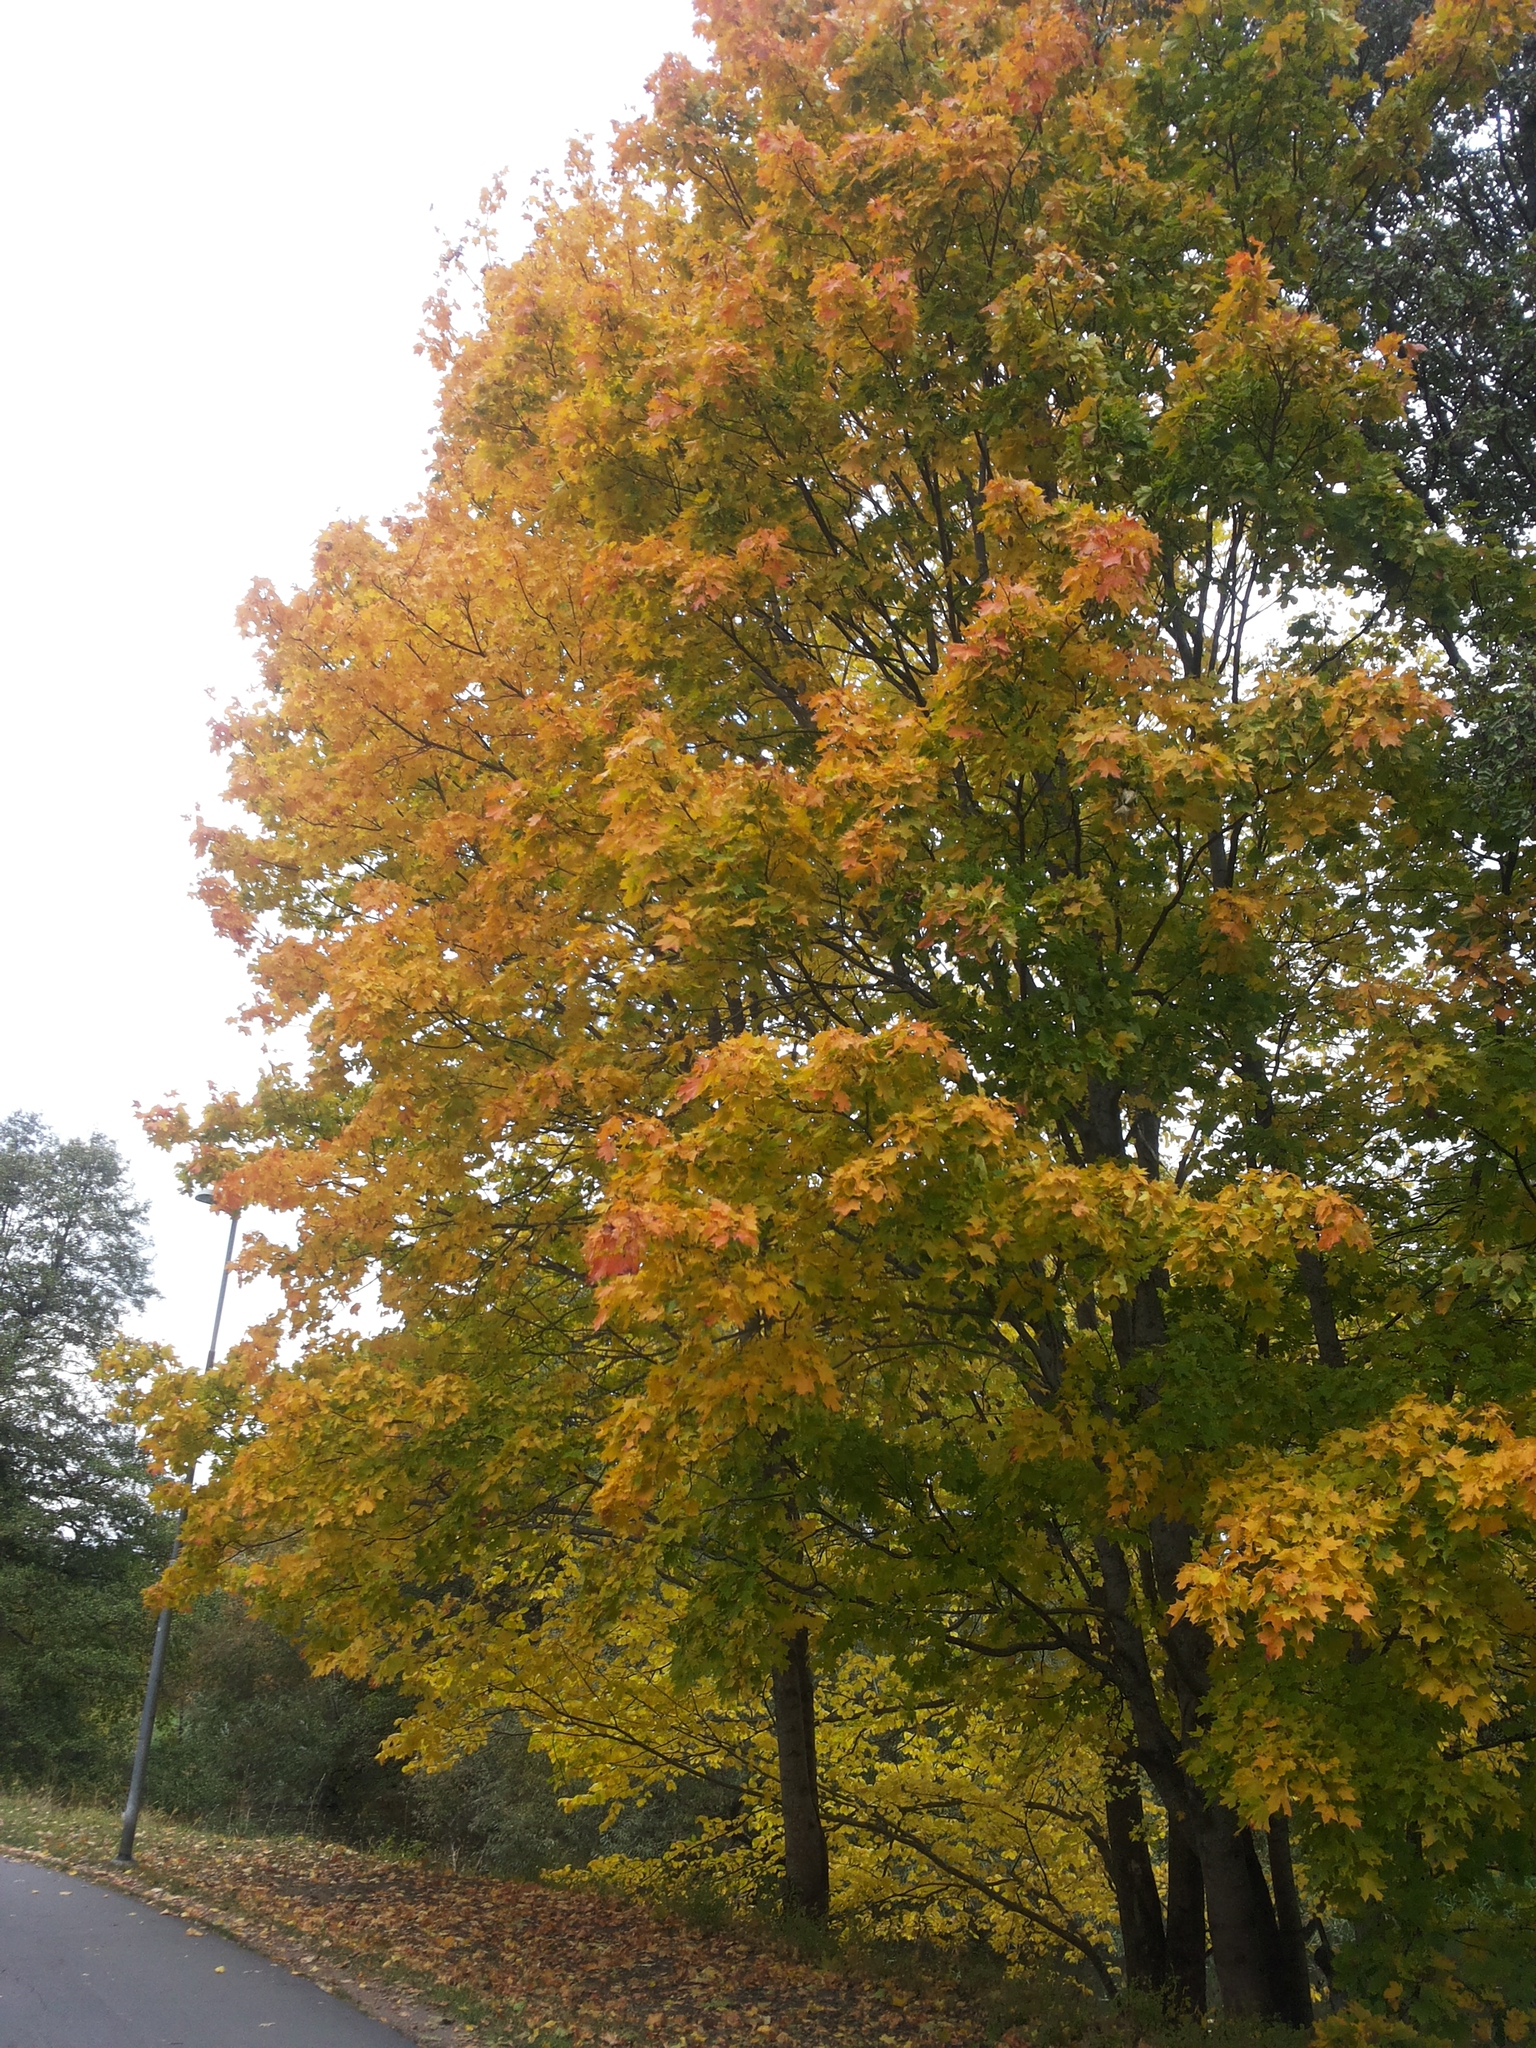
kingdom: Plantae
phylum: Tracheophyta
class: Magnoliopsida
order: Sapindales
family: Sapindaceae
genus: Acer
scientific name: Acer platanoides
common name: Norway maple
